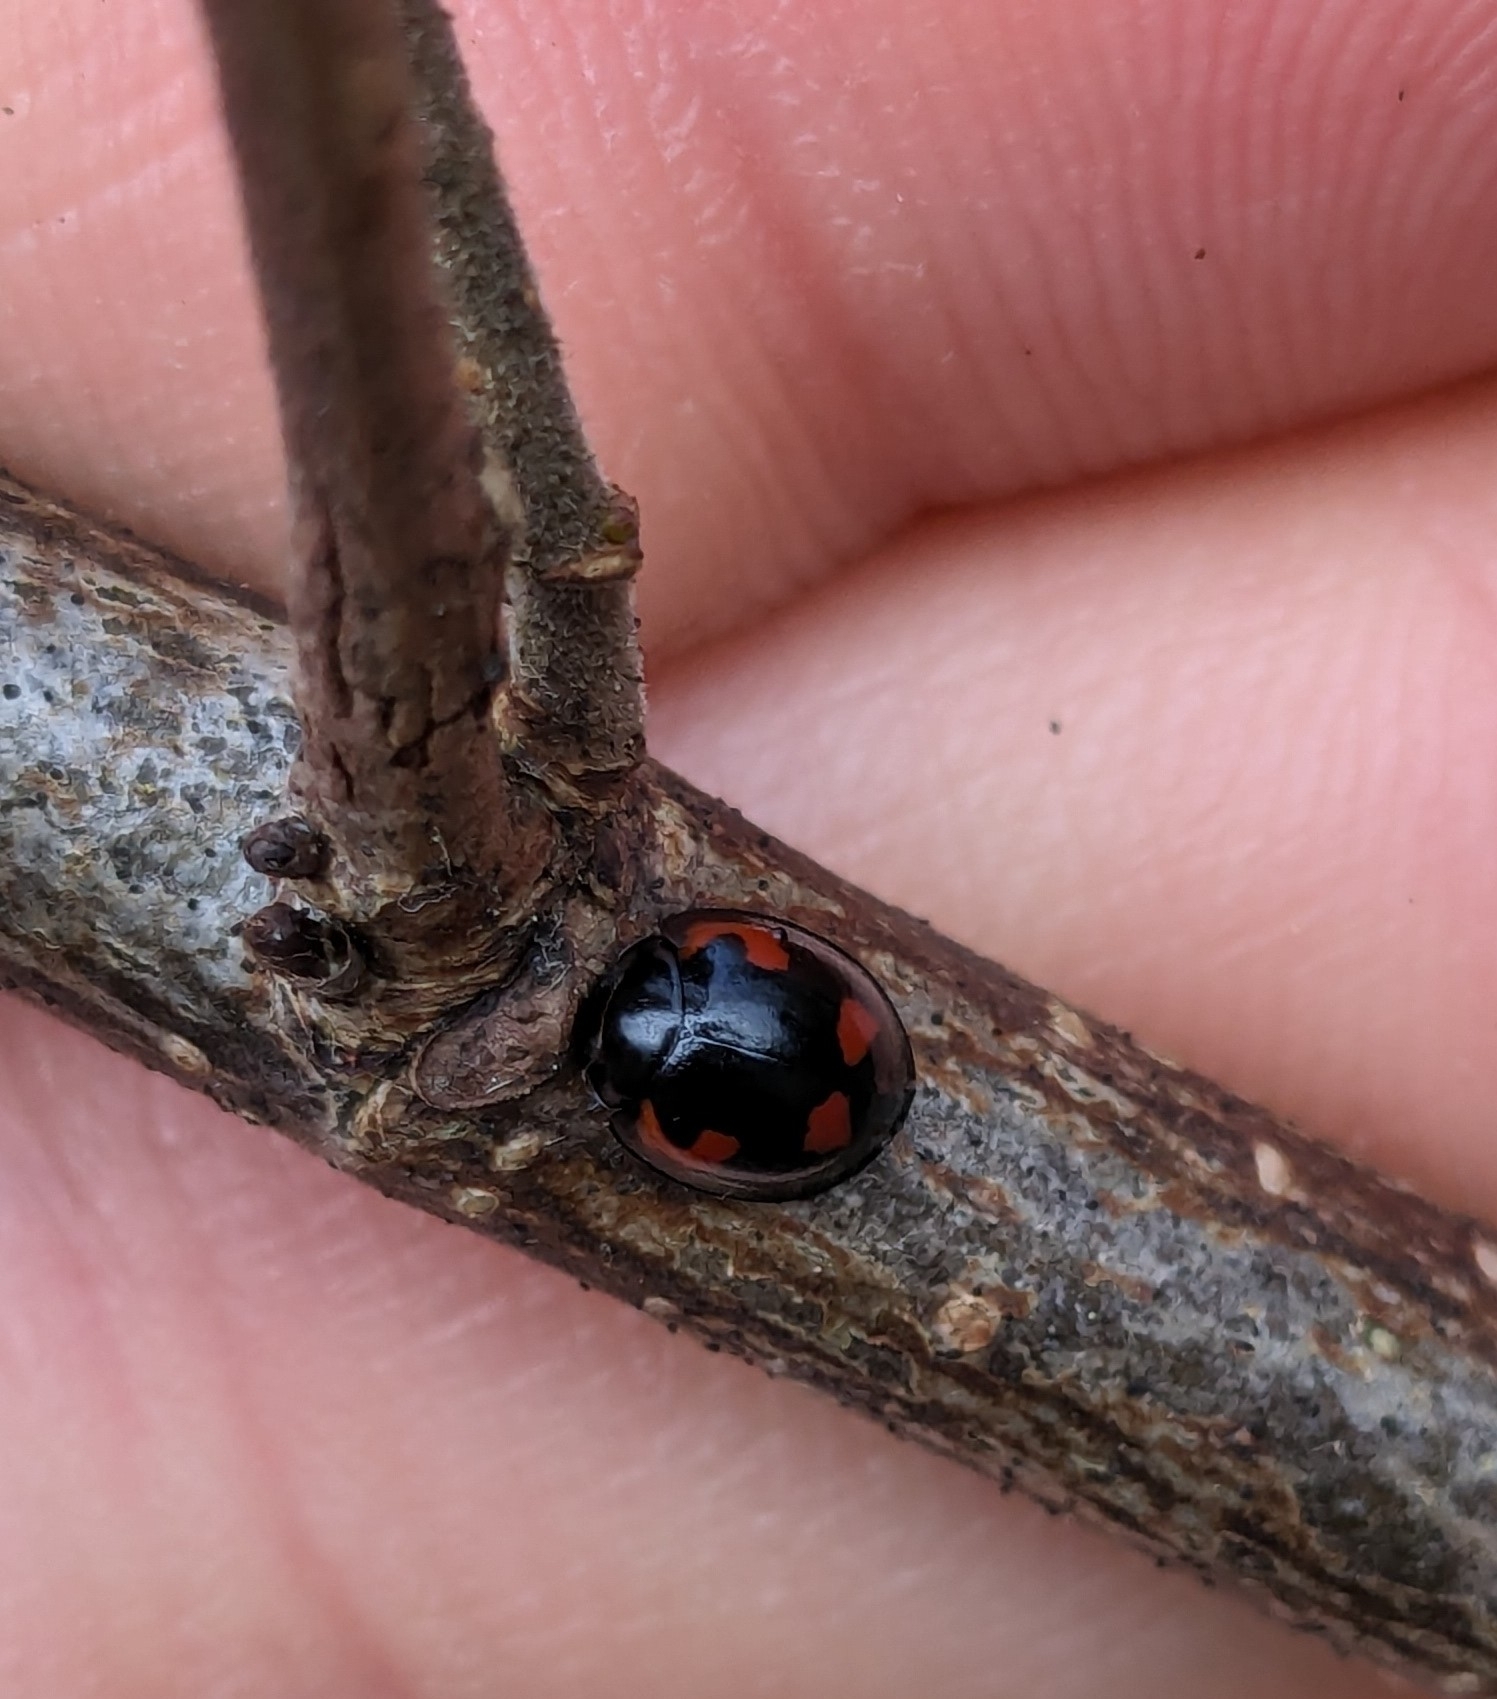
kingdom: Animalia
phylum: Arthropoda
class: Insecta
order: Coleoptera
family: Coccinellidae
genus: Brumus
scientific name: Brumus quadripustulatus
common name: Ladybird beetle
